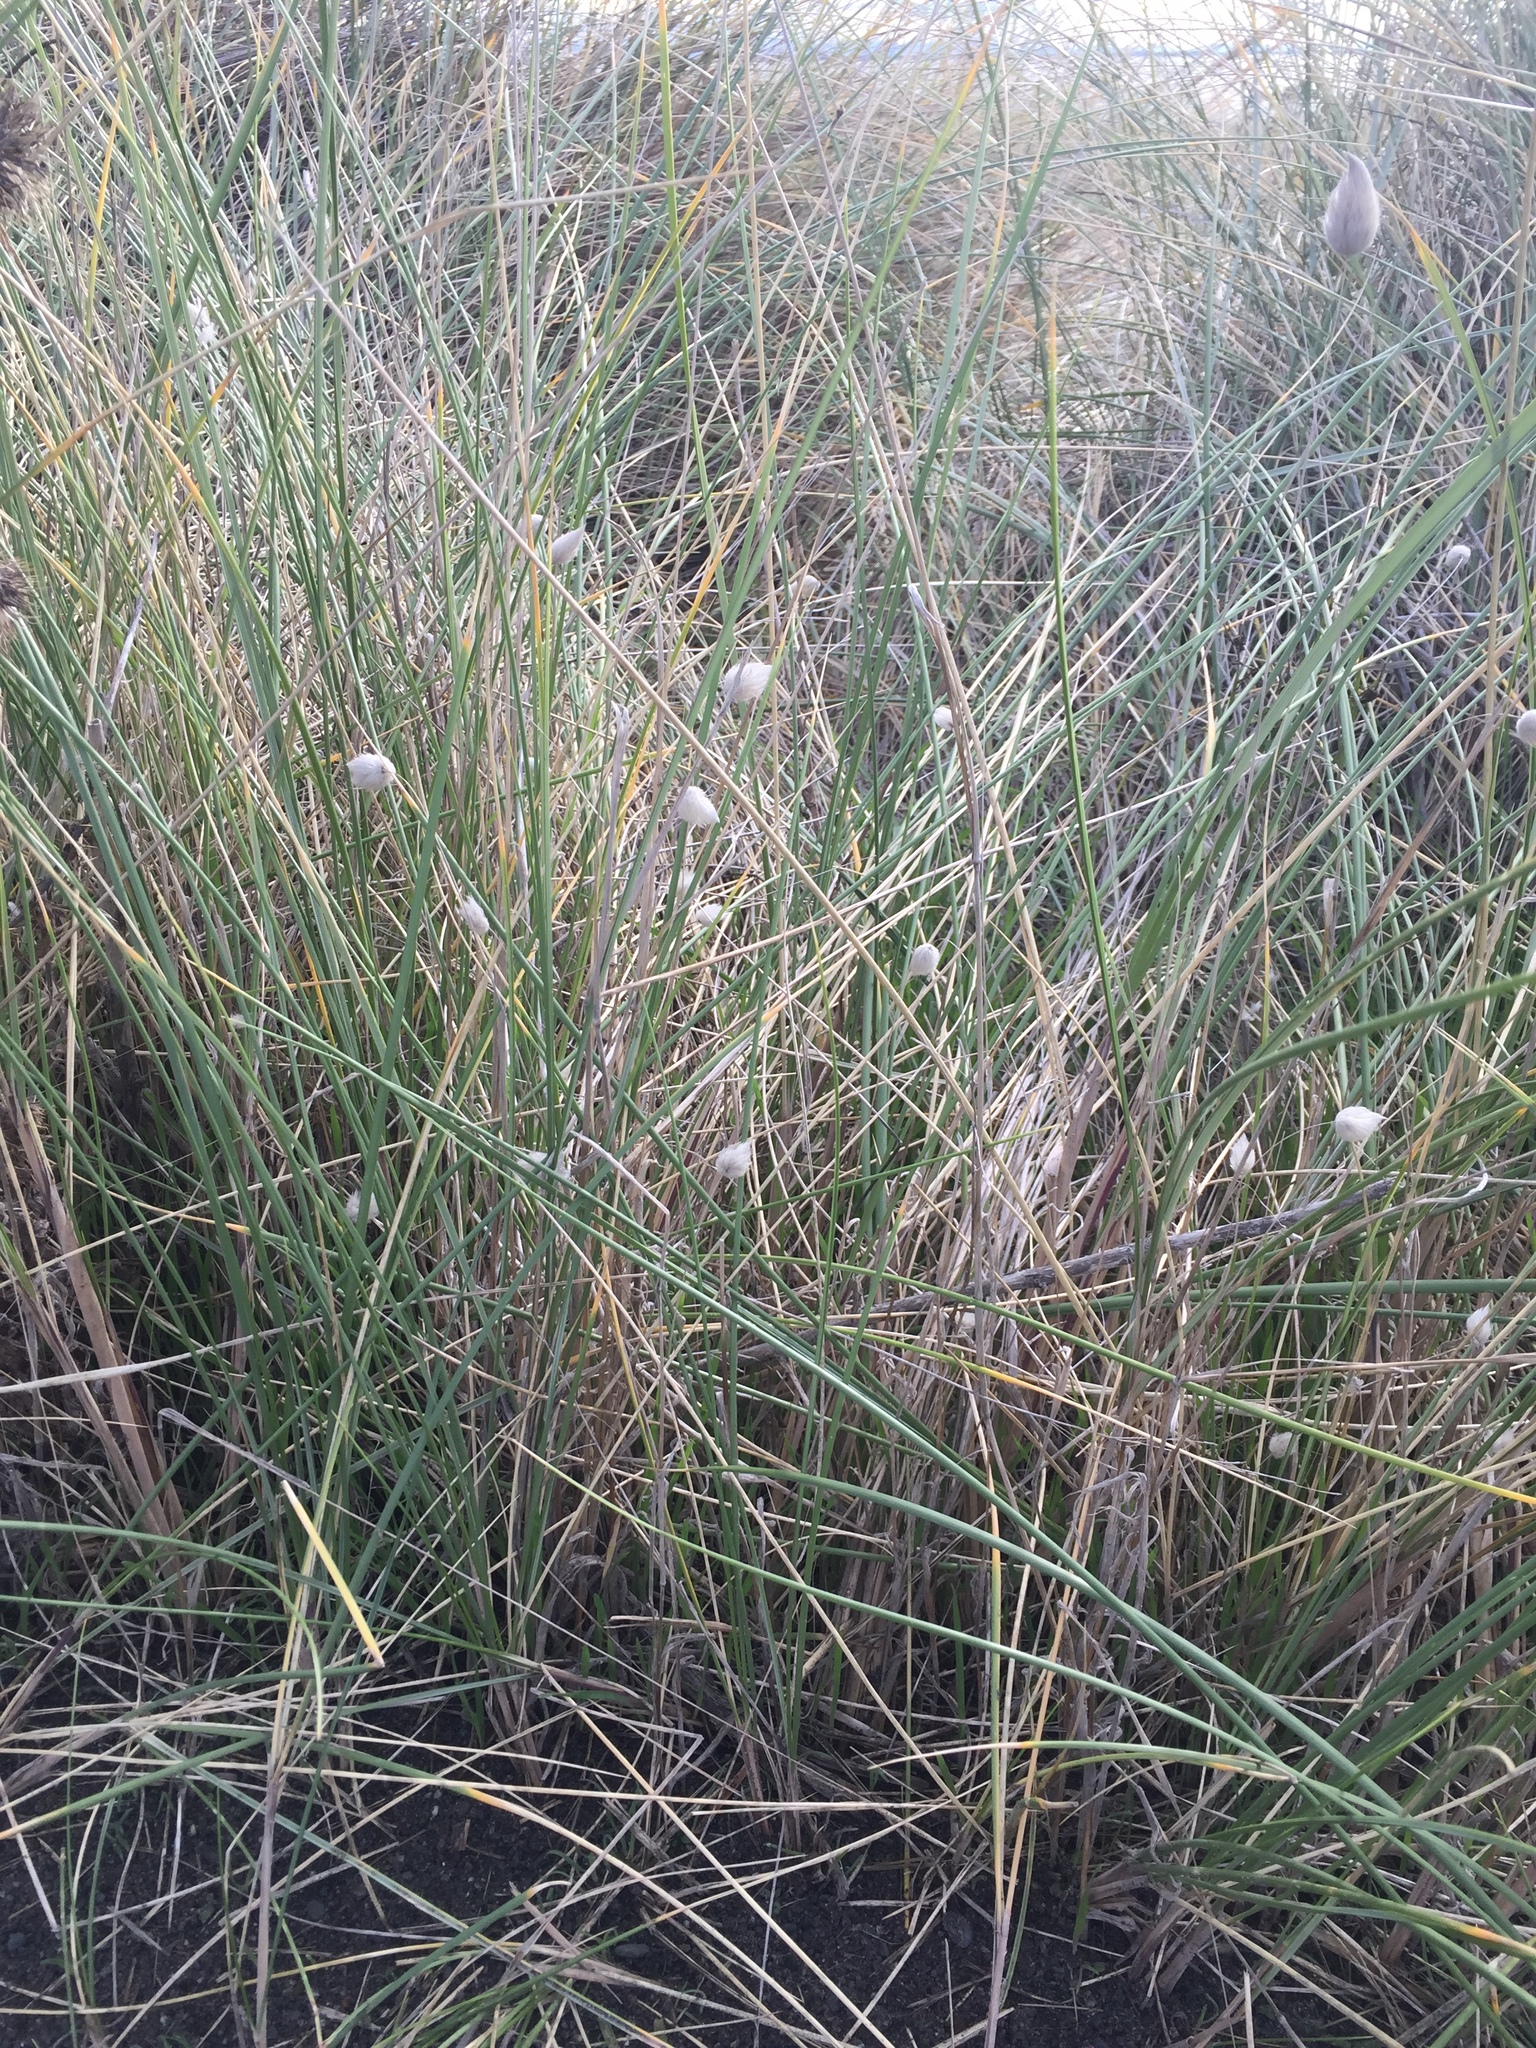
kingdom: Plantae
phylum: Tracheophyta
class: Liliopsida
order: Poales
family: Poaceae
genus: Lagurus
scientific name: Lagurus ovatus
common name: Hare's-tail
